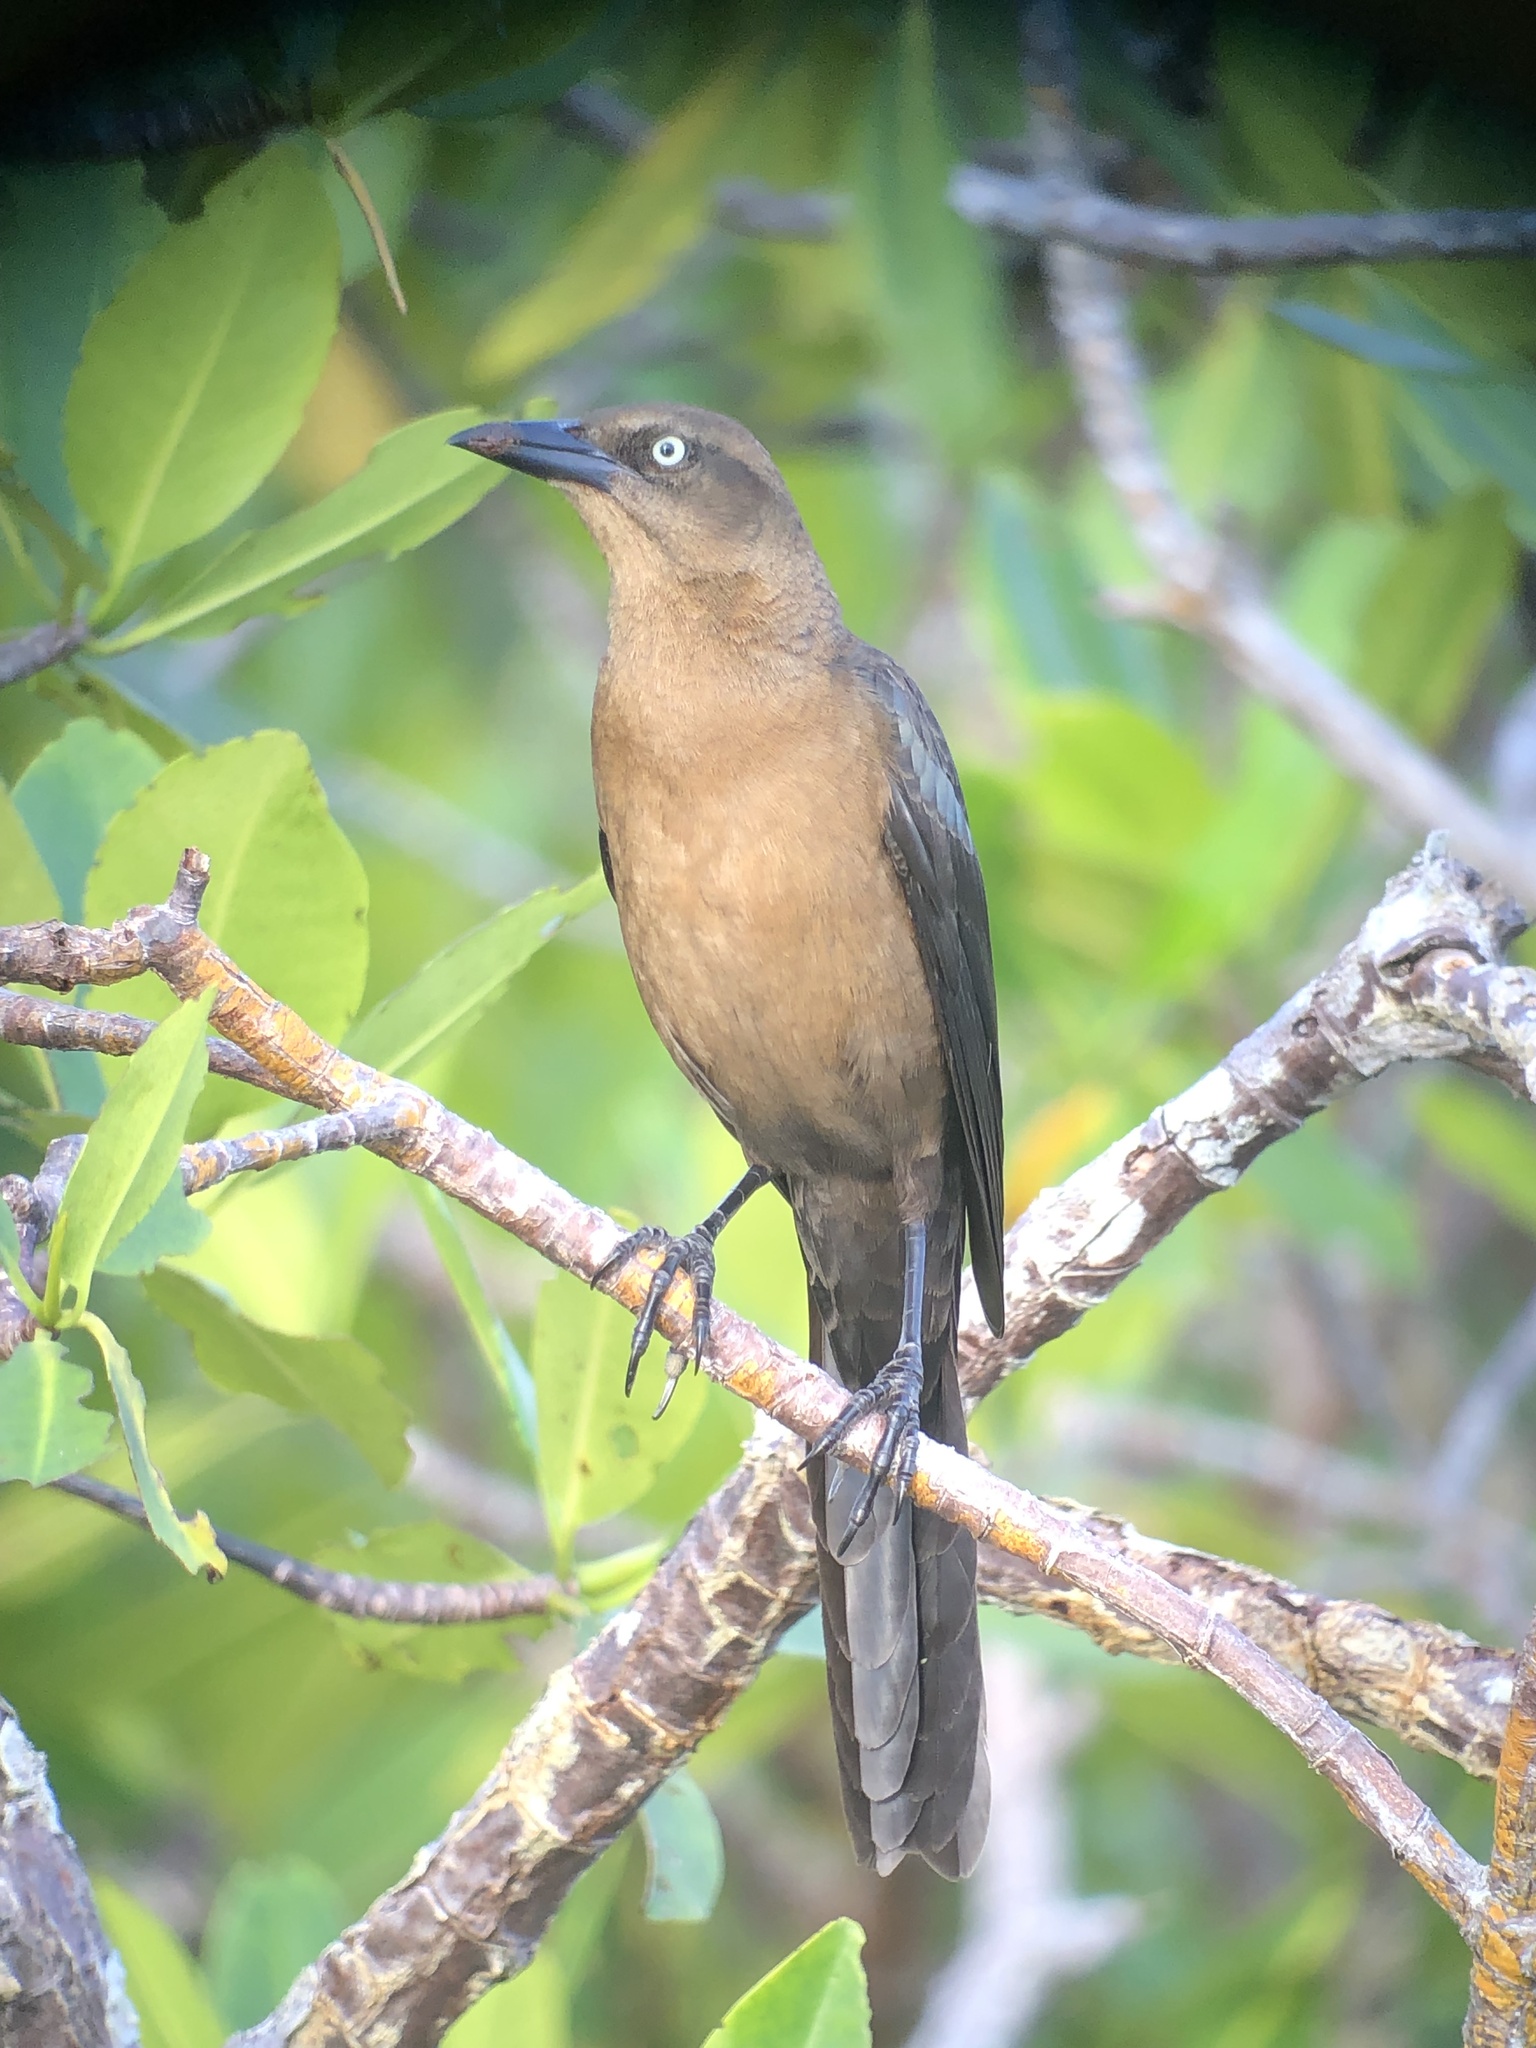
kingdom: Animalia
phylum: Chordata
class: Aves
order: Passeriformes
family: Icteridae
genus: Quiscalus
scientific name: Quiscalus mexicanus
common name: Great-tailed grackle
